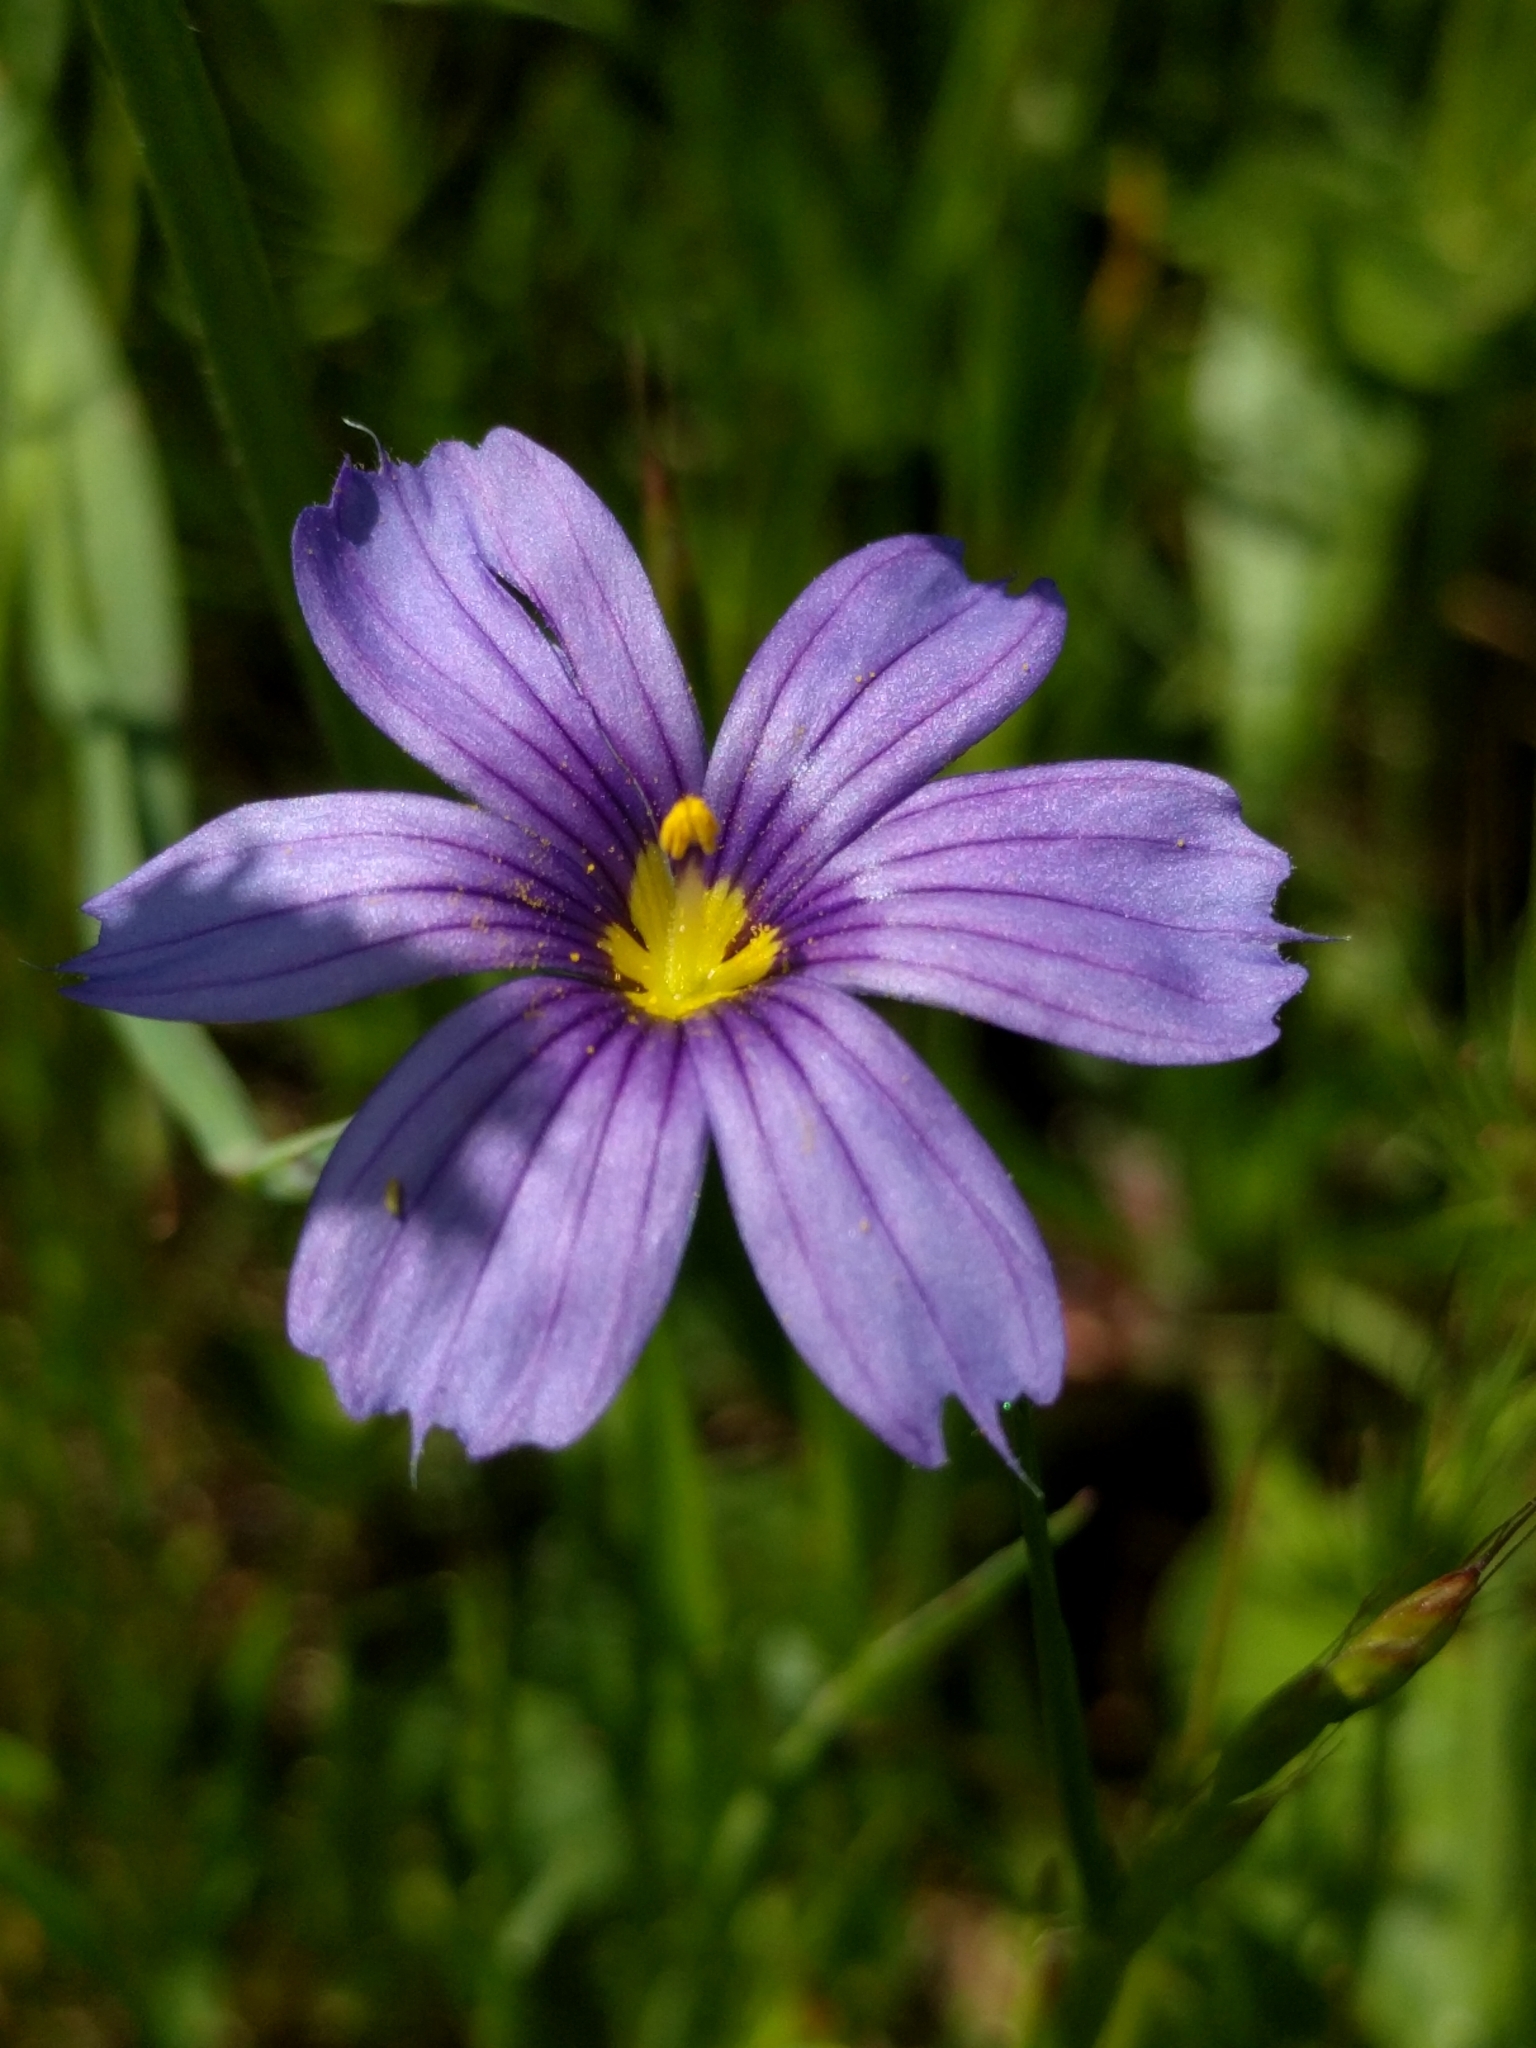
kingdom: Plantae
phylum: Tracheophyta
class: Liliopsida
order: Asparagales
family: Iridaceae
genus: Sisyrinchium
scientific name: Sisyrinchium bellum
